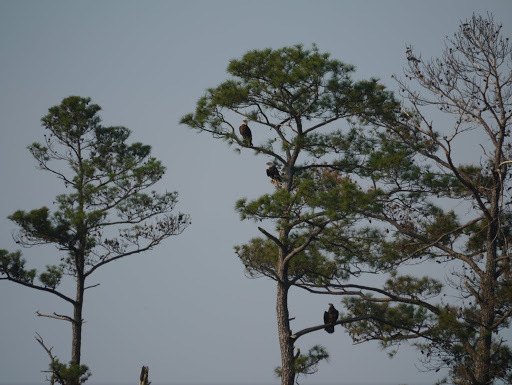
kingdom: Animalia
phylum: Chordata
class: Aves
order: Accipitriformes
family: Accipitridae
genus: Haliaeetus
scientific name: Haliaeetus leucocephalus
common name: Bald eagle
